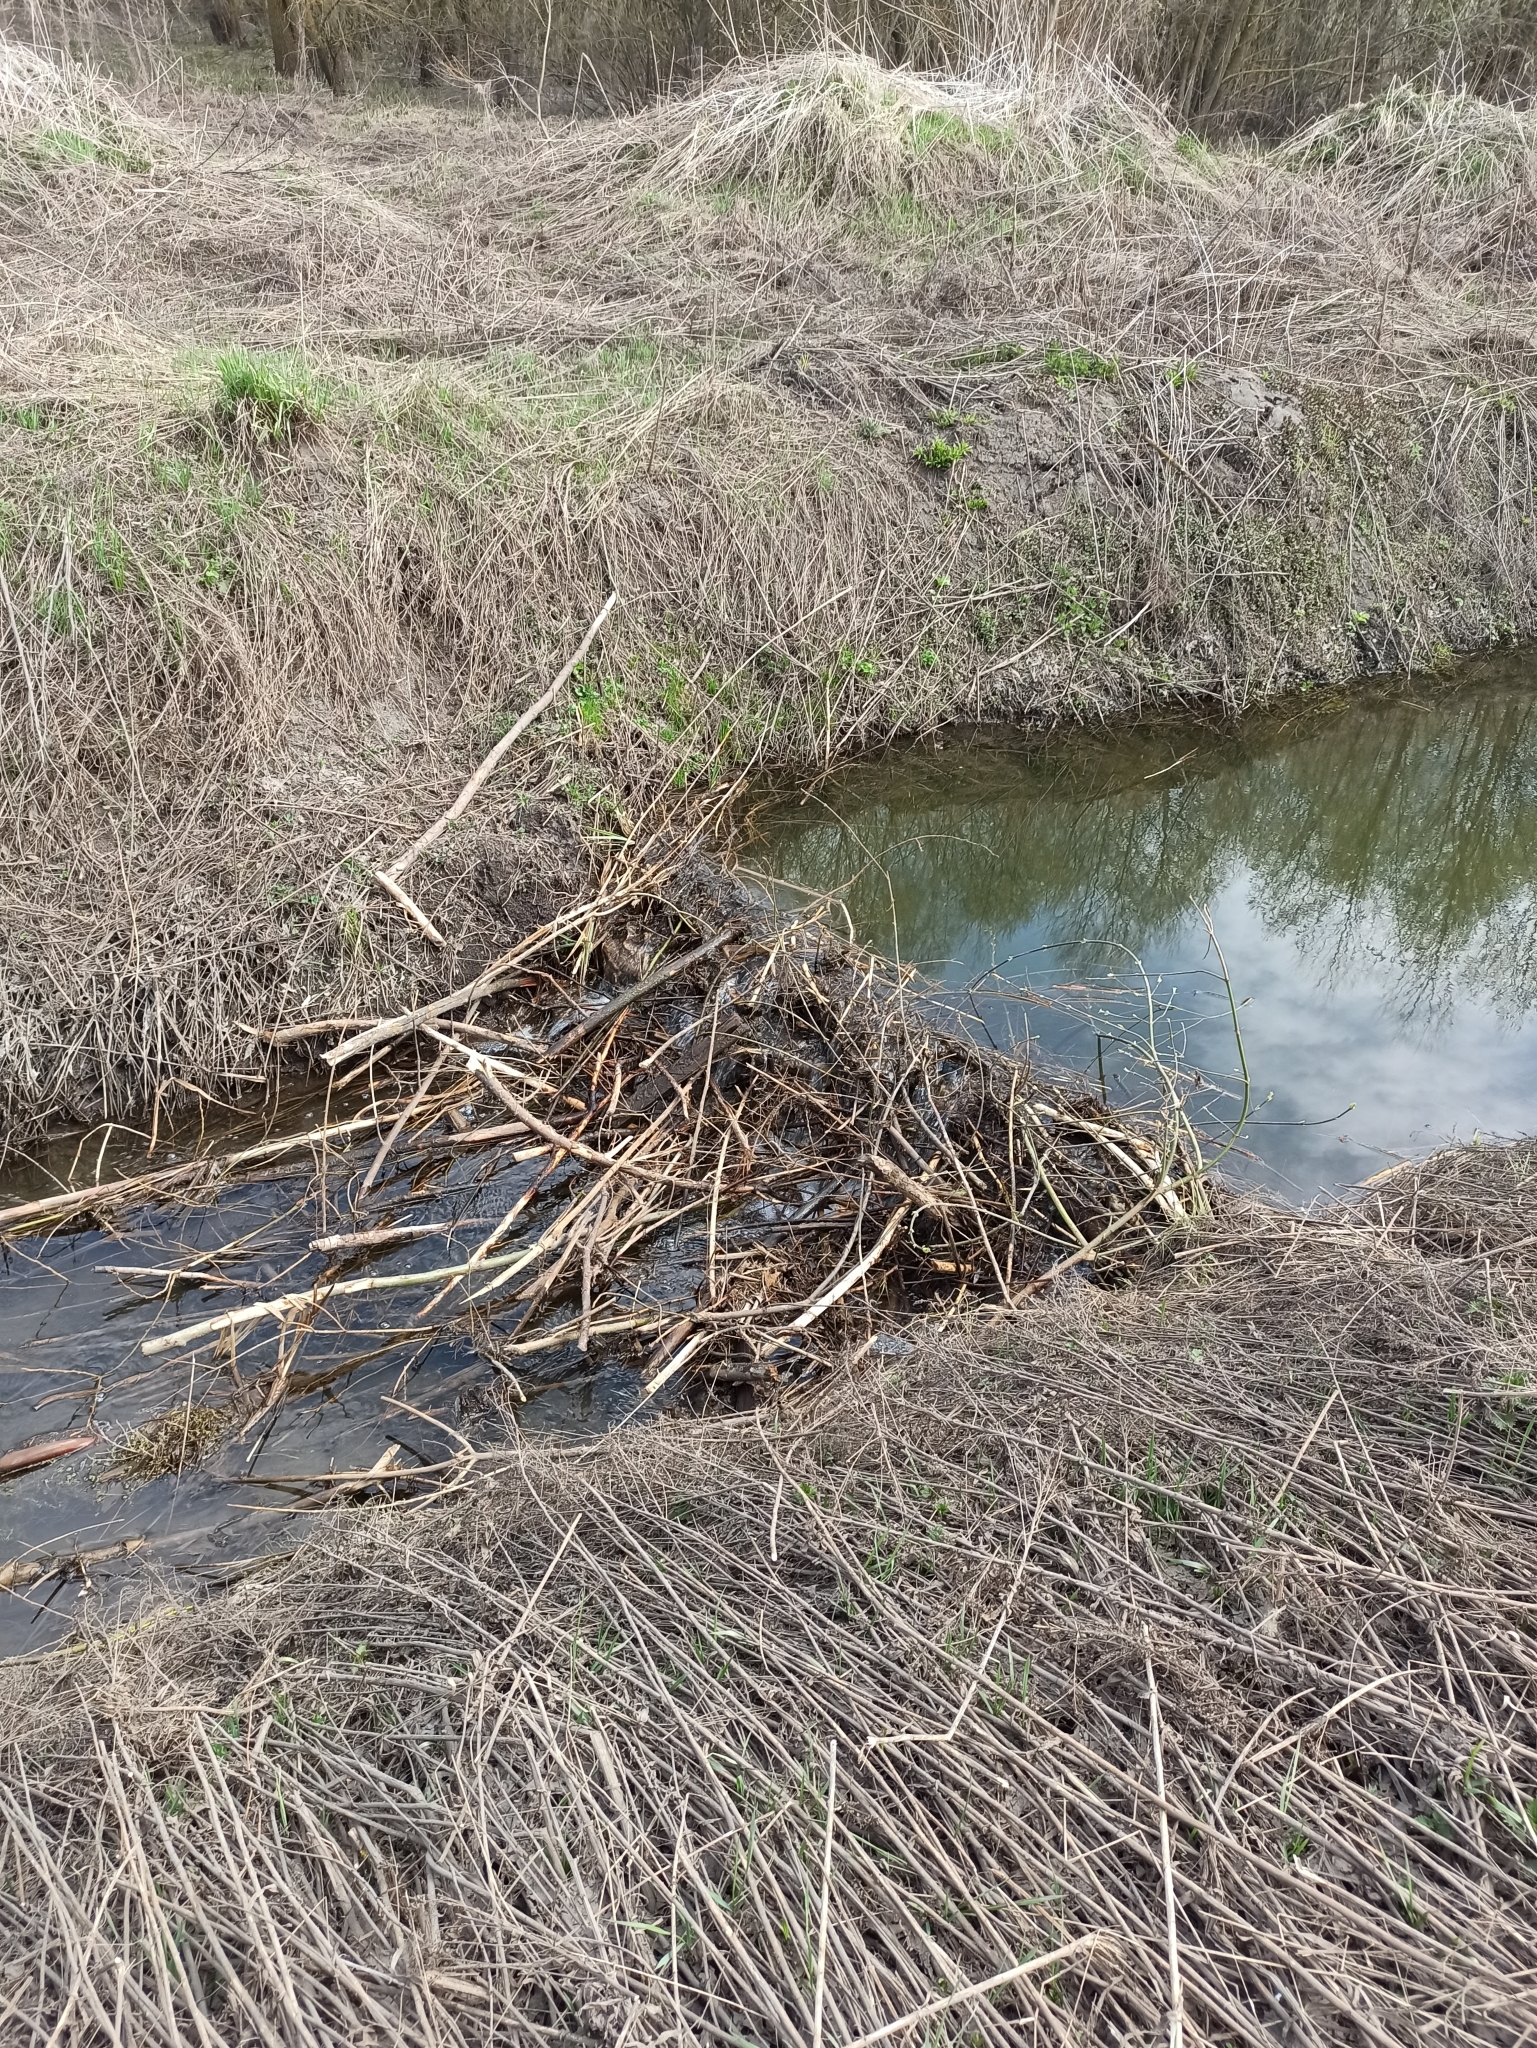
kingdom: Animalia
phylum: Chordata
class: Mammalia
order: Rodentia
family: Castoridae
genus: Castor
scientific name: Castor fiber
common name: Eurasian beaver
